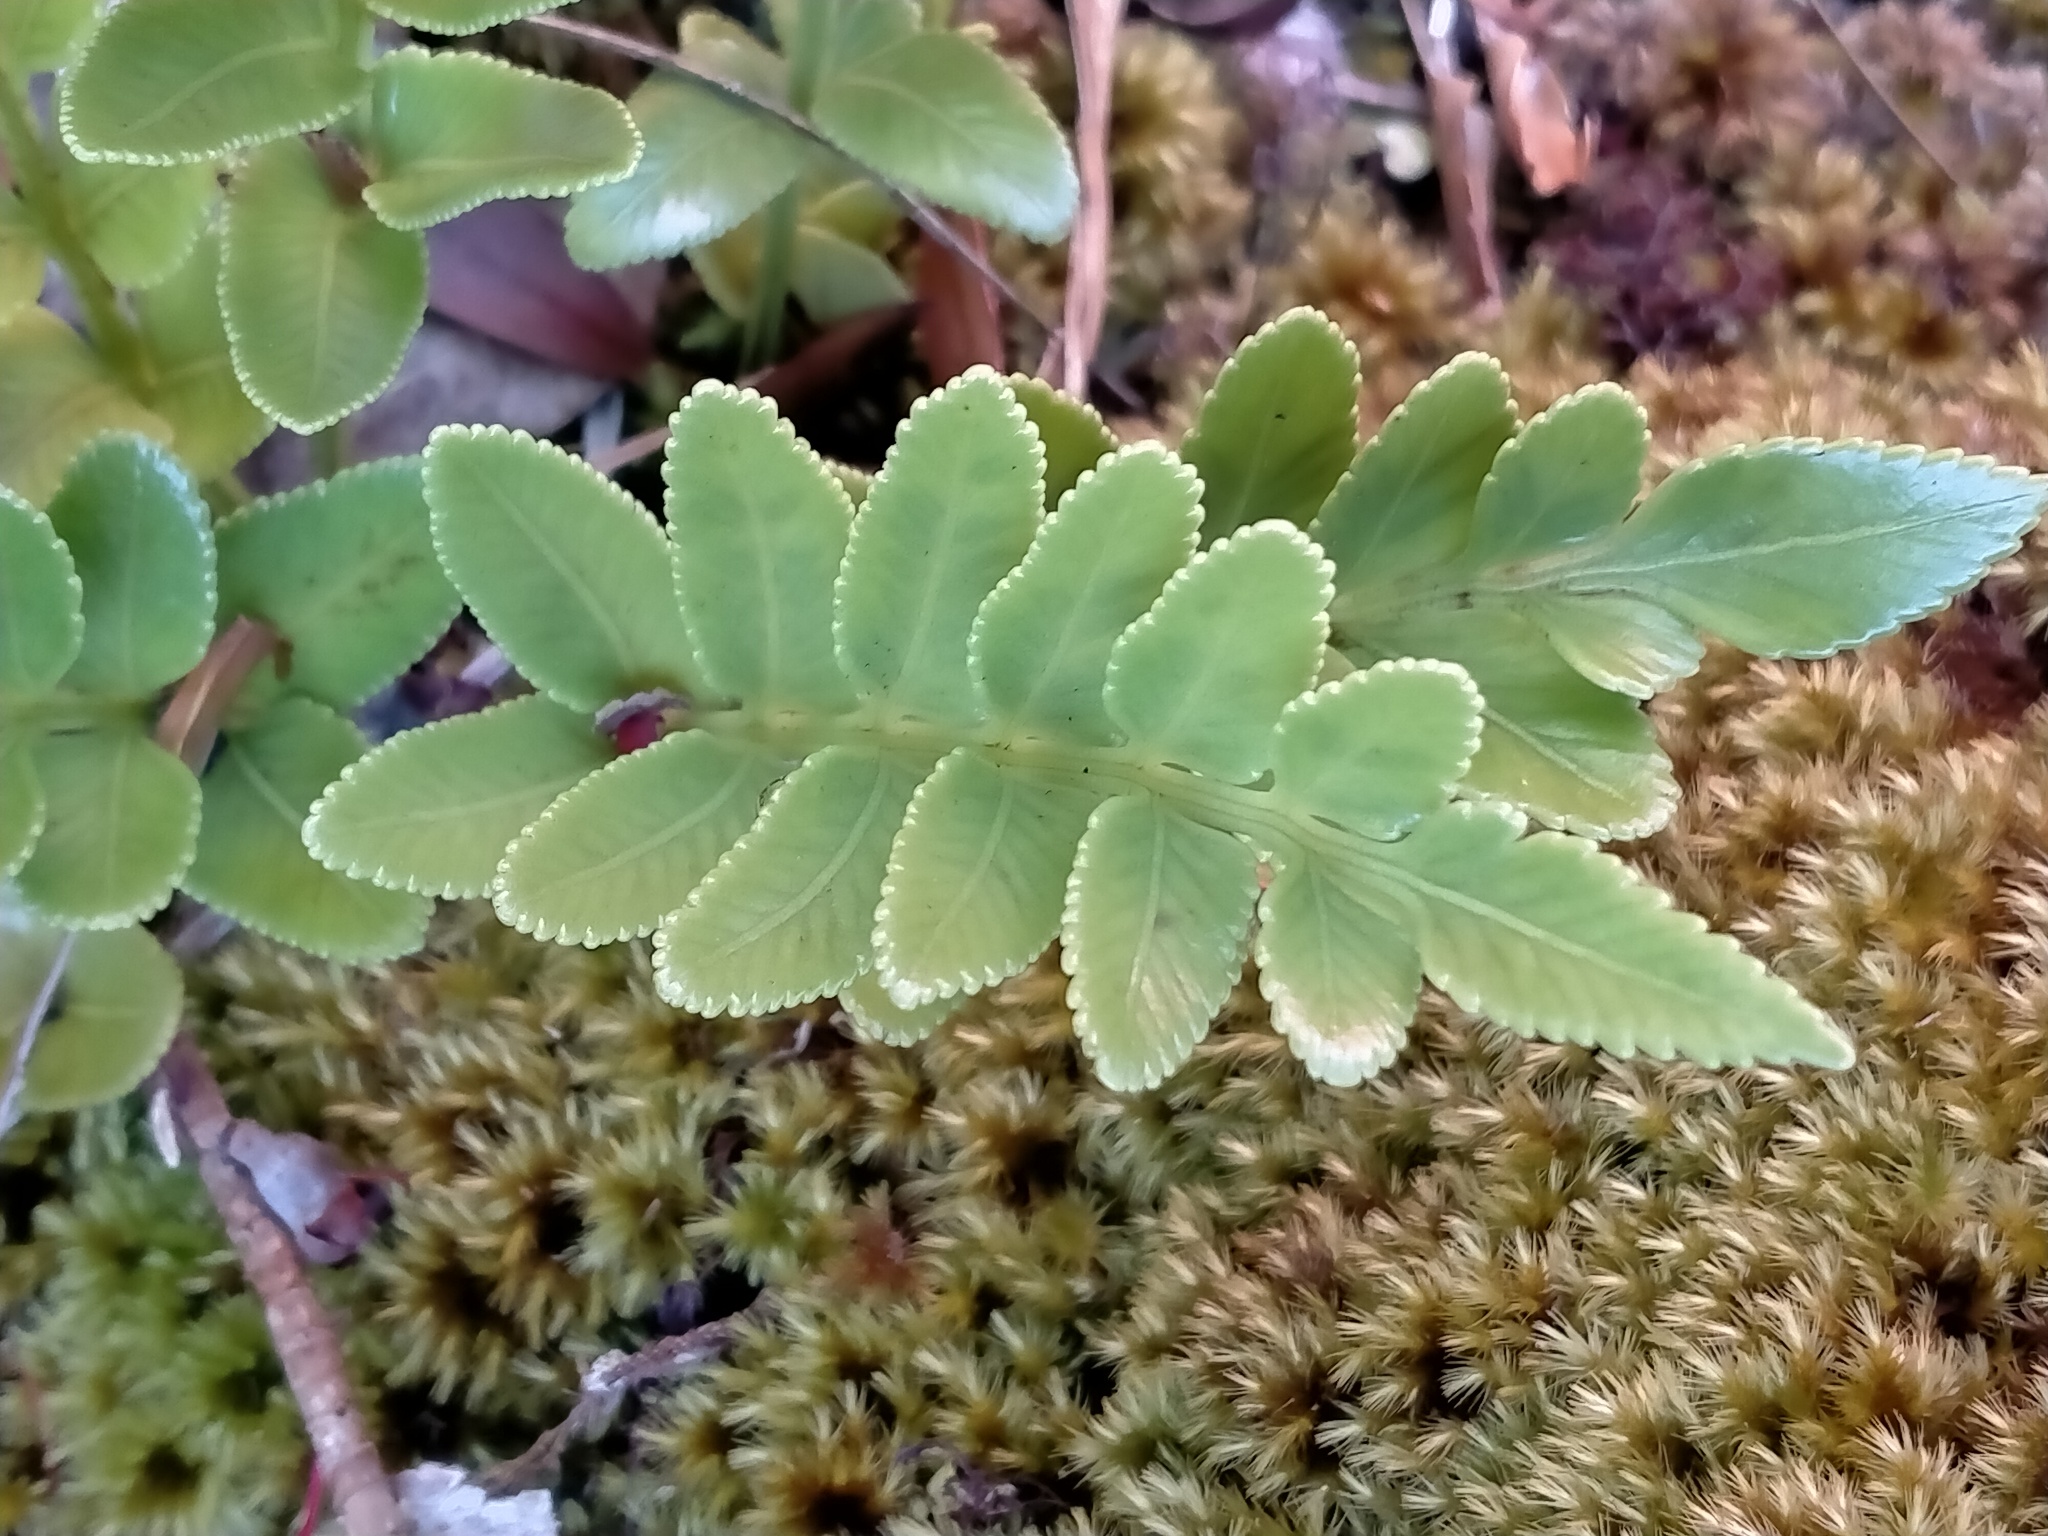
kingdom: Plantae
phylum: Tracheophyta
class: Polypodiopsida
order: Polypodiales
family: Aspleniaceae
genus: Asplenium
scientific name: Asplenium obtusatum
